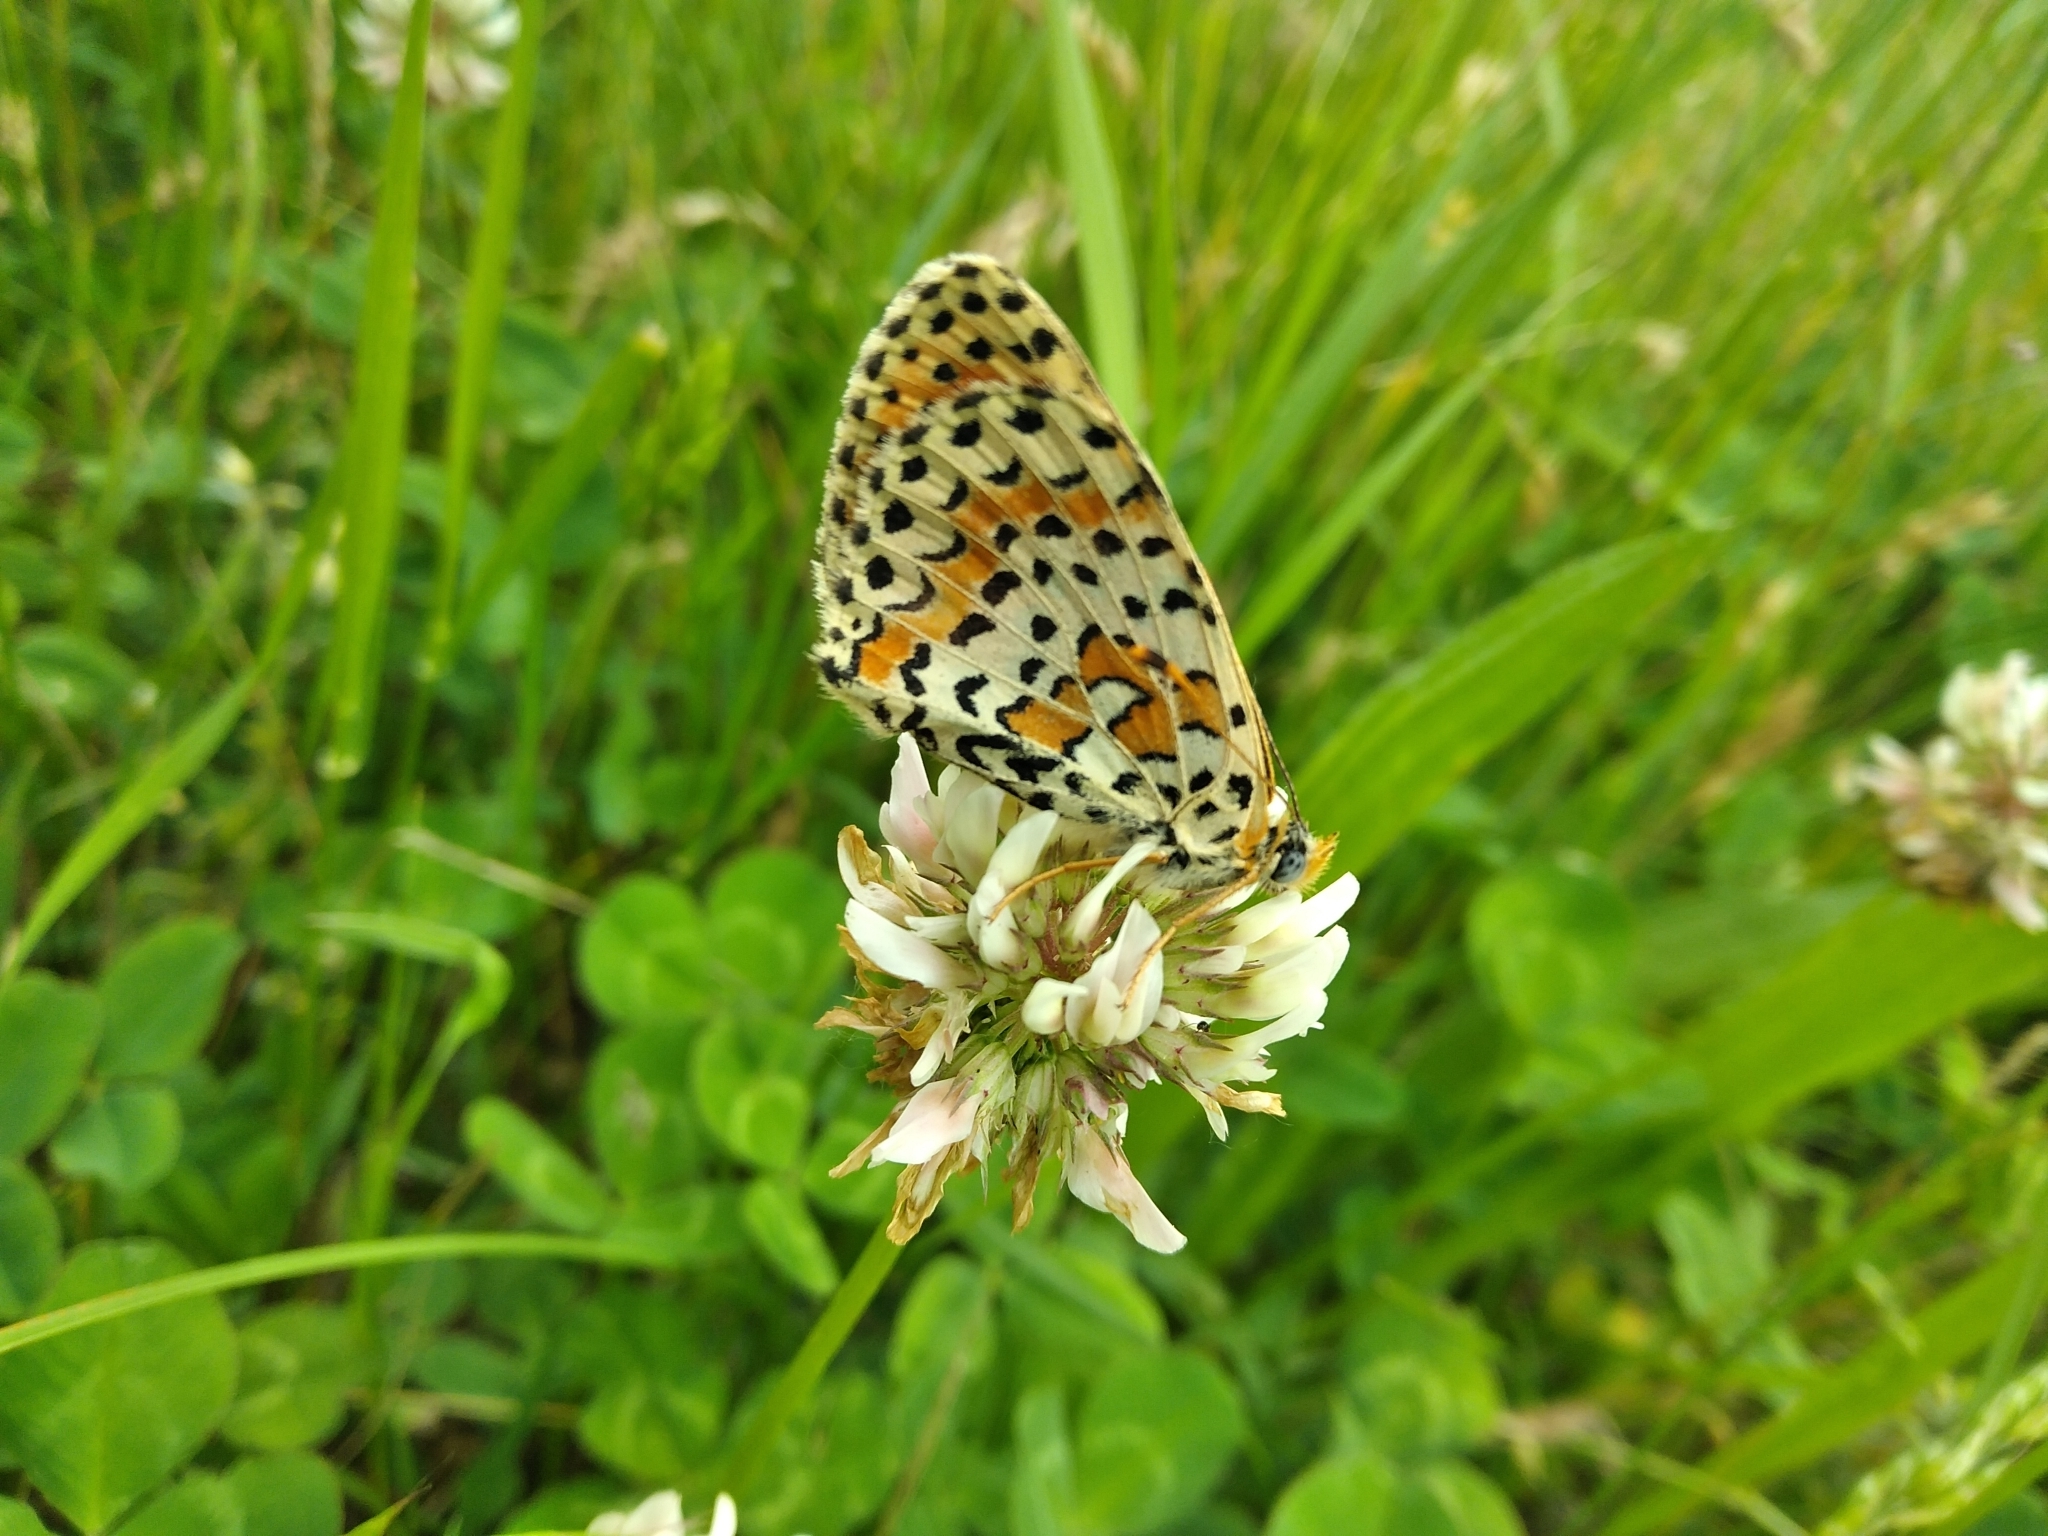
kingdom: Animalia
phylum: Arthropoda
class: Insecta
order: Lepidoptera
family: Nymphalidae
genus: Melitaea
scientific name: Melitaea didyma
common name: Spotted fritillary
